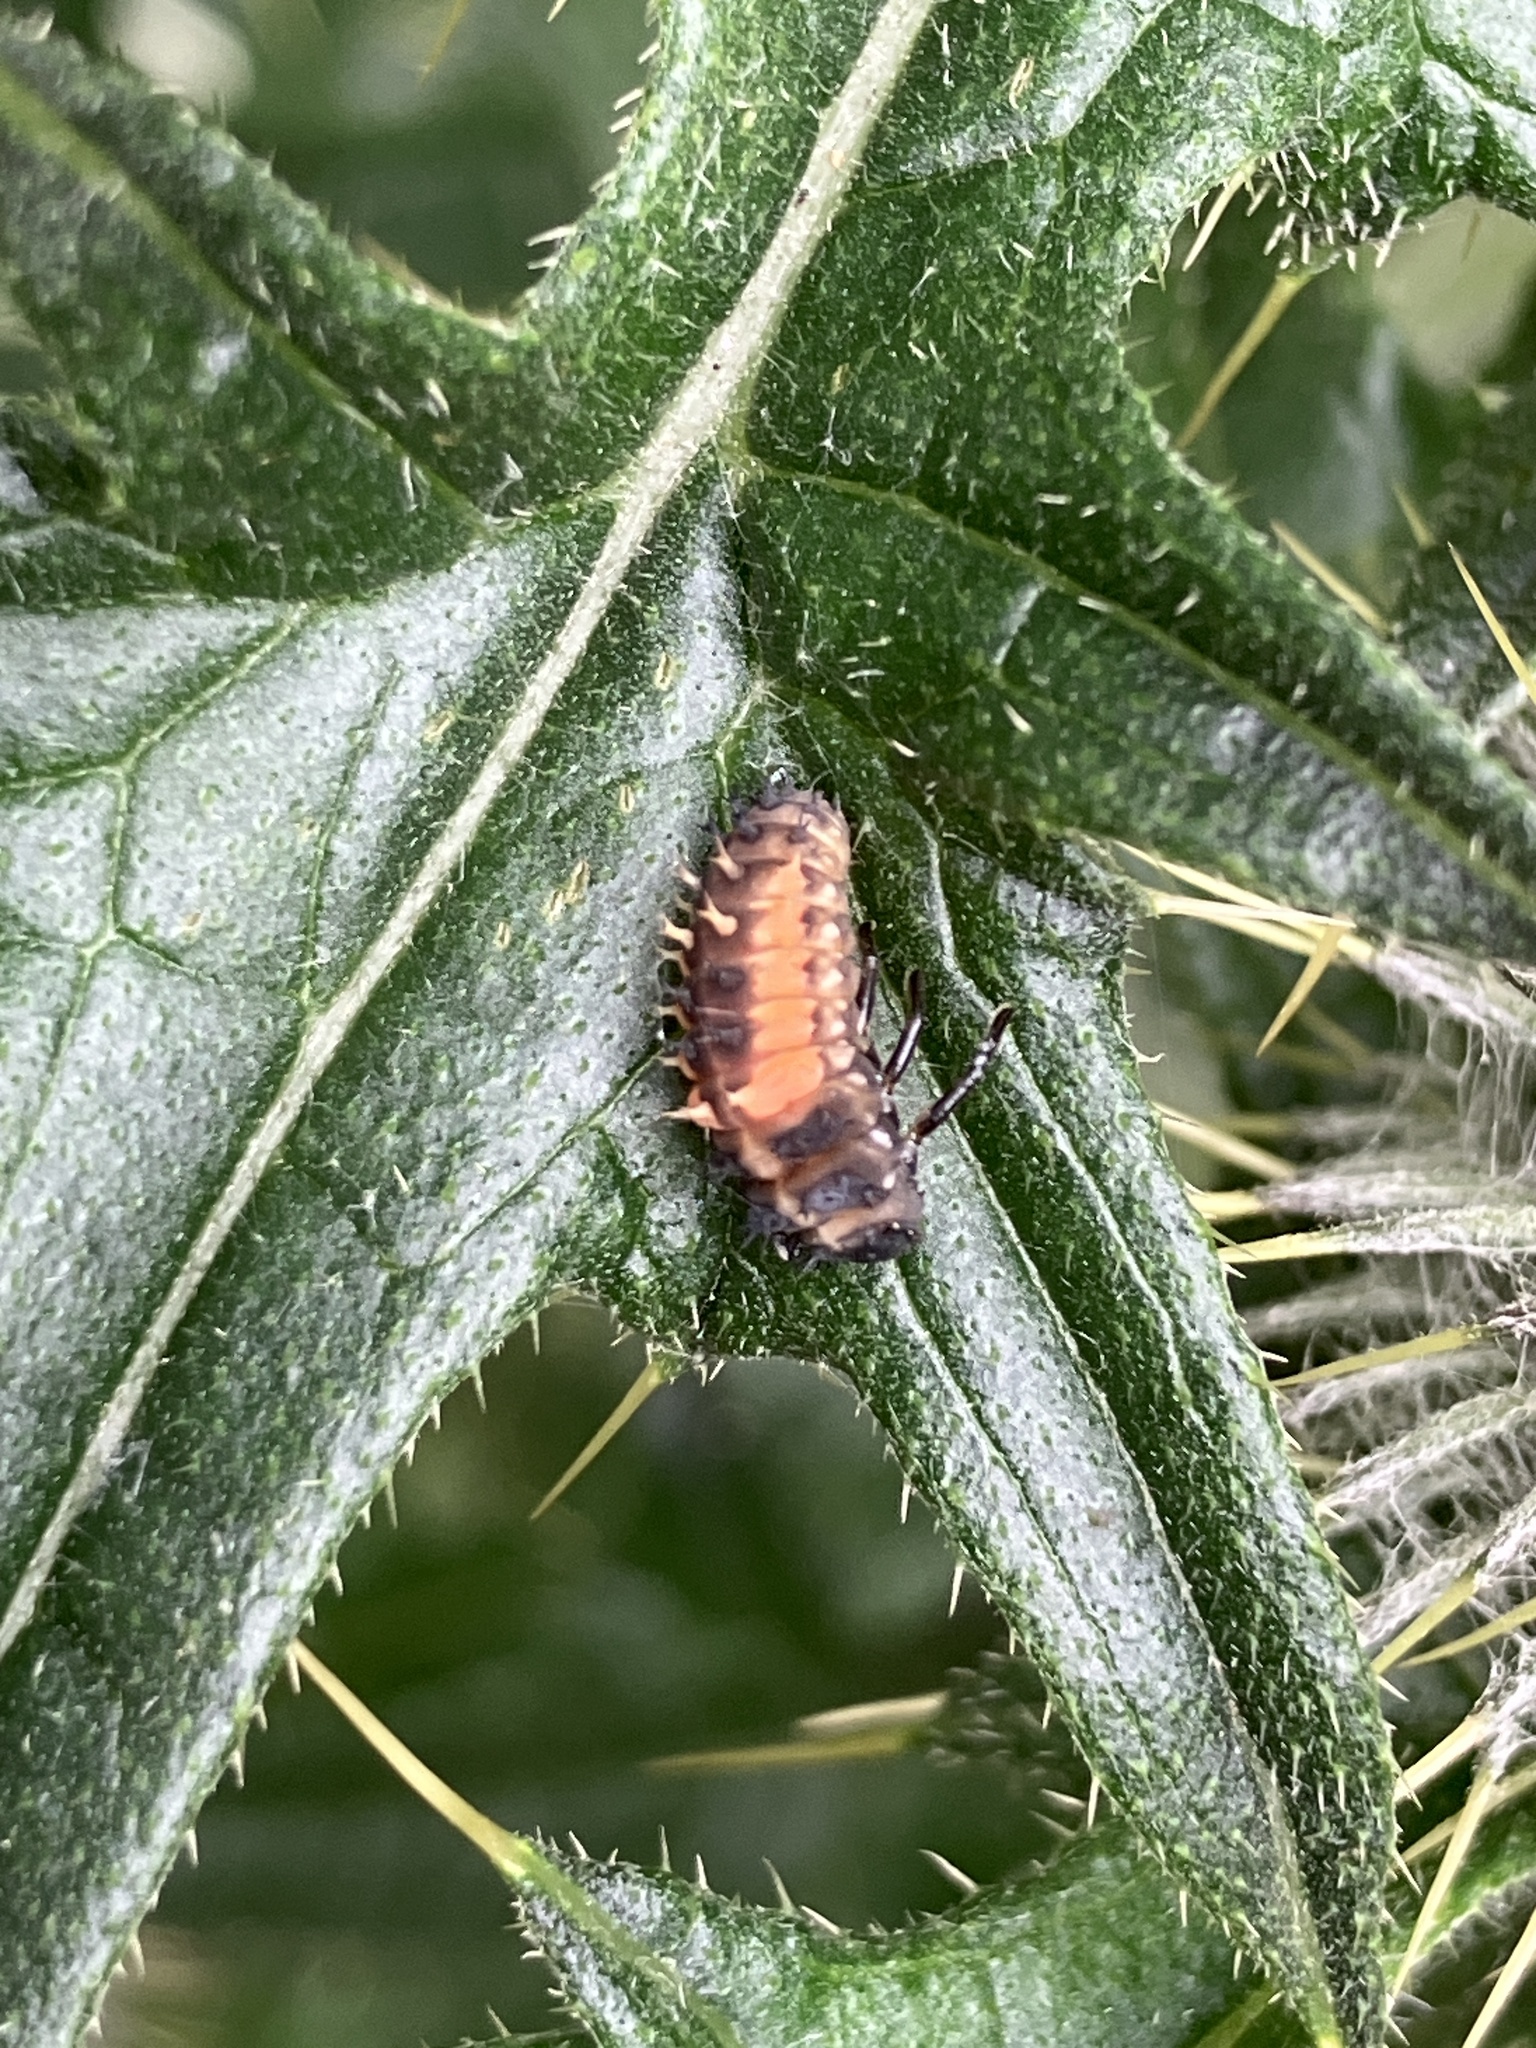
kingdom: Animalia
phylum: Arthropoda
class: Insecta
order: Coleoptera
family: Coccinellidae
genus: Harmonia
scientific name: Harmonia axyridis
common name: Harlequin ladybird
